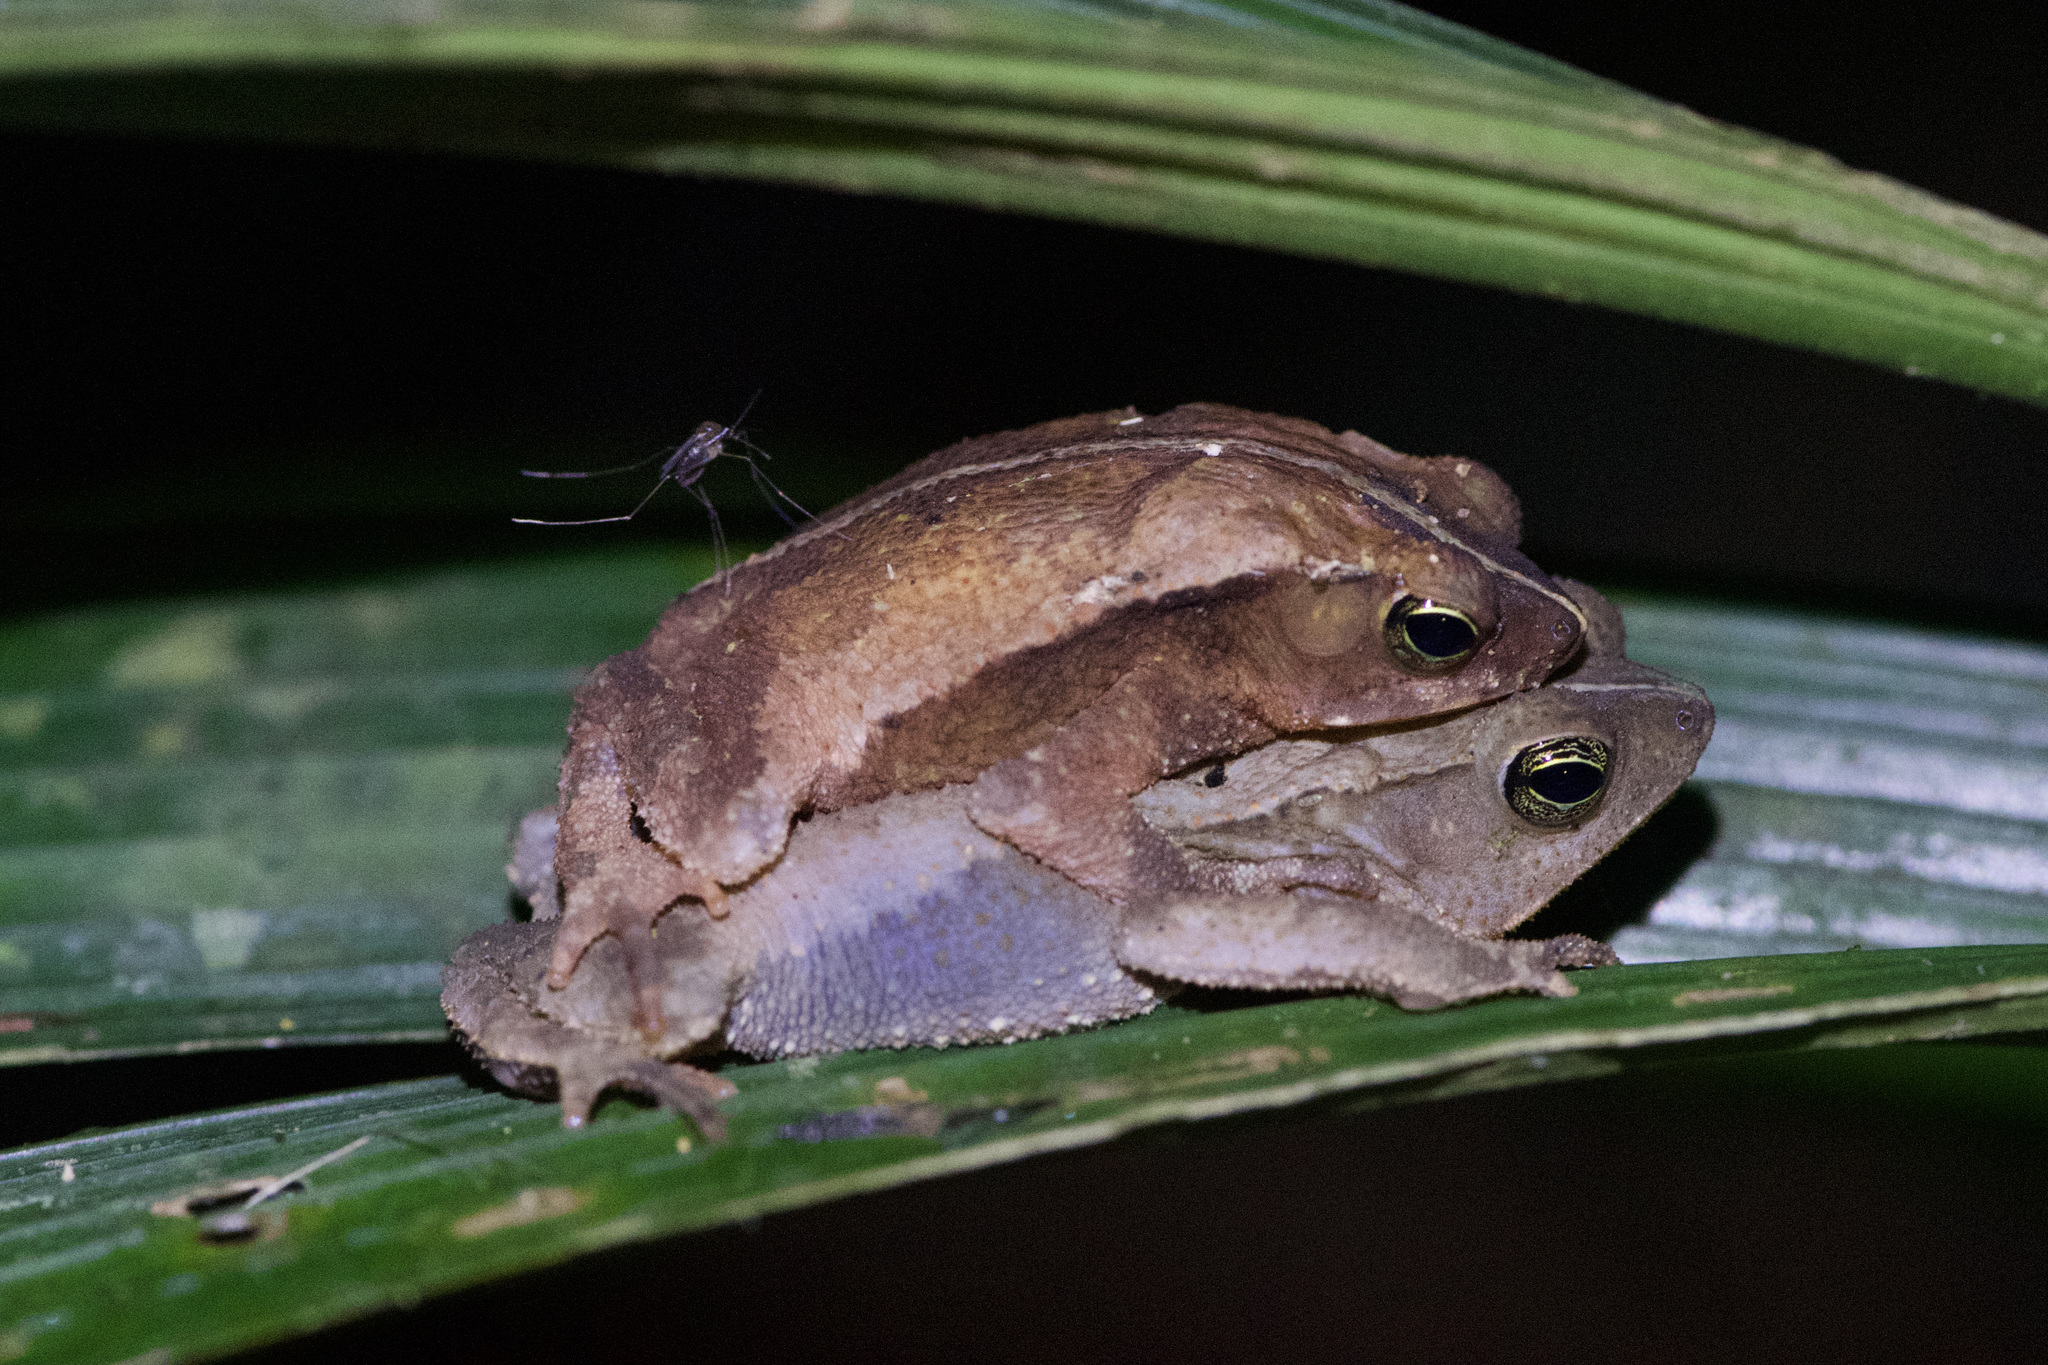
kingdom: Animalia
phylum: Chordata
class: Amphibia
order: Anura
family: Bufonidae
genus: Rhinella
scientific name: Rhinella alata
